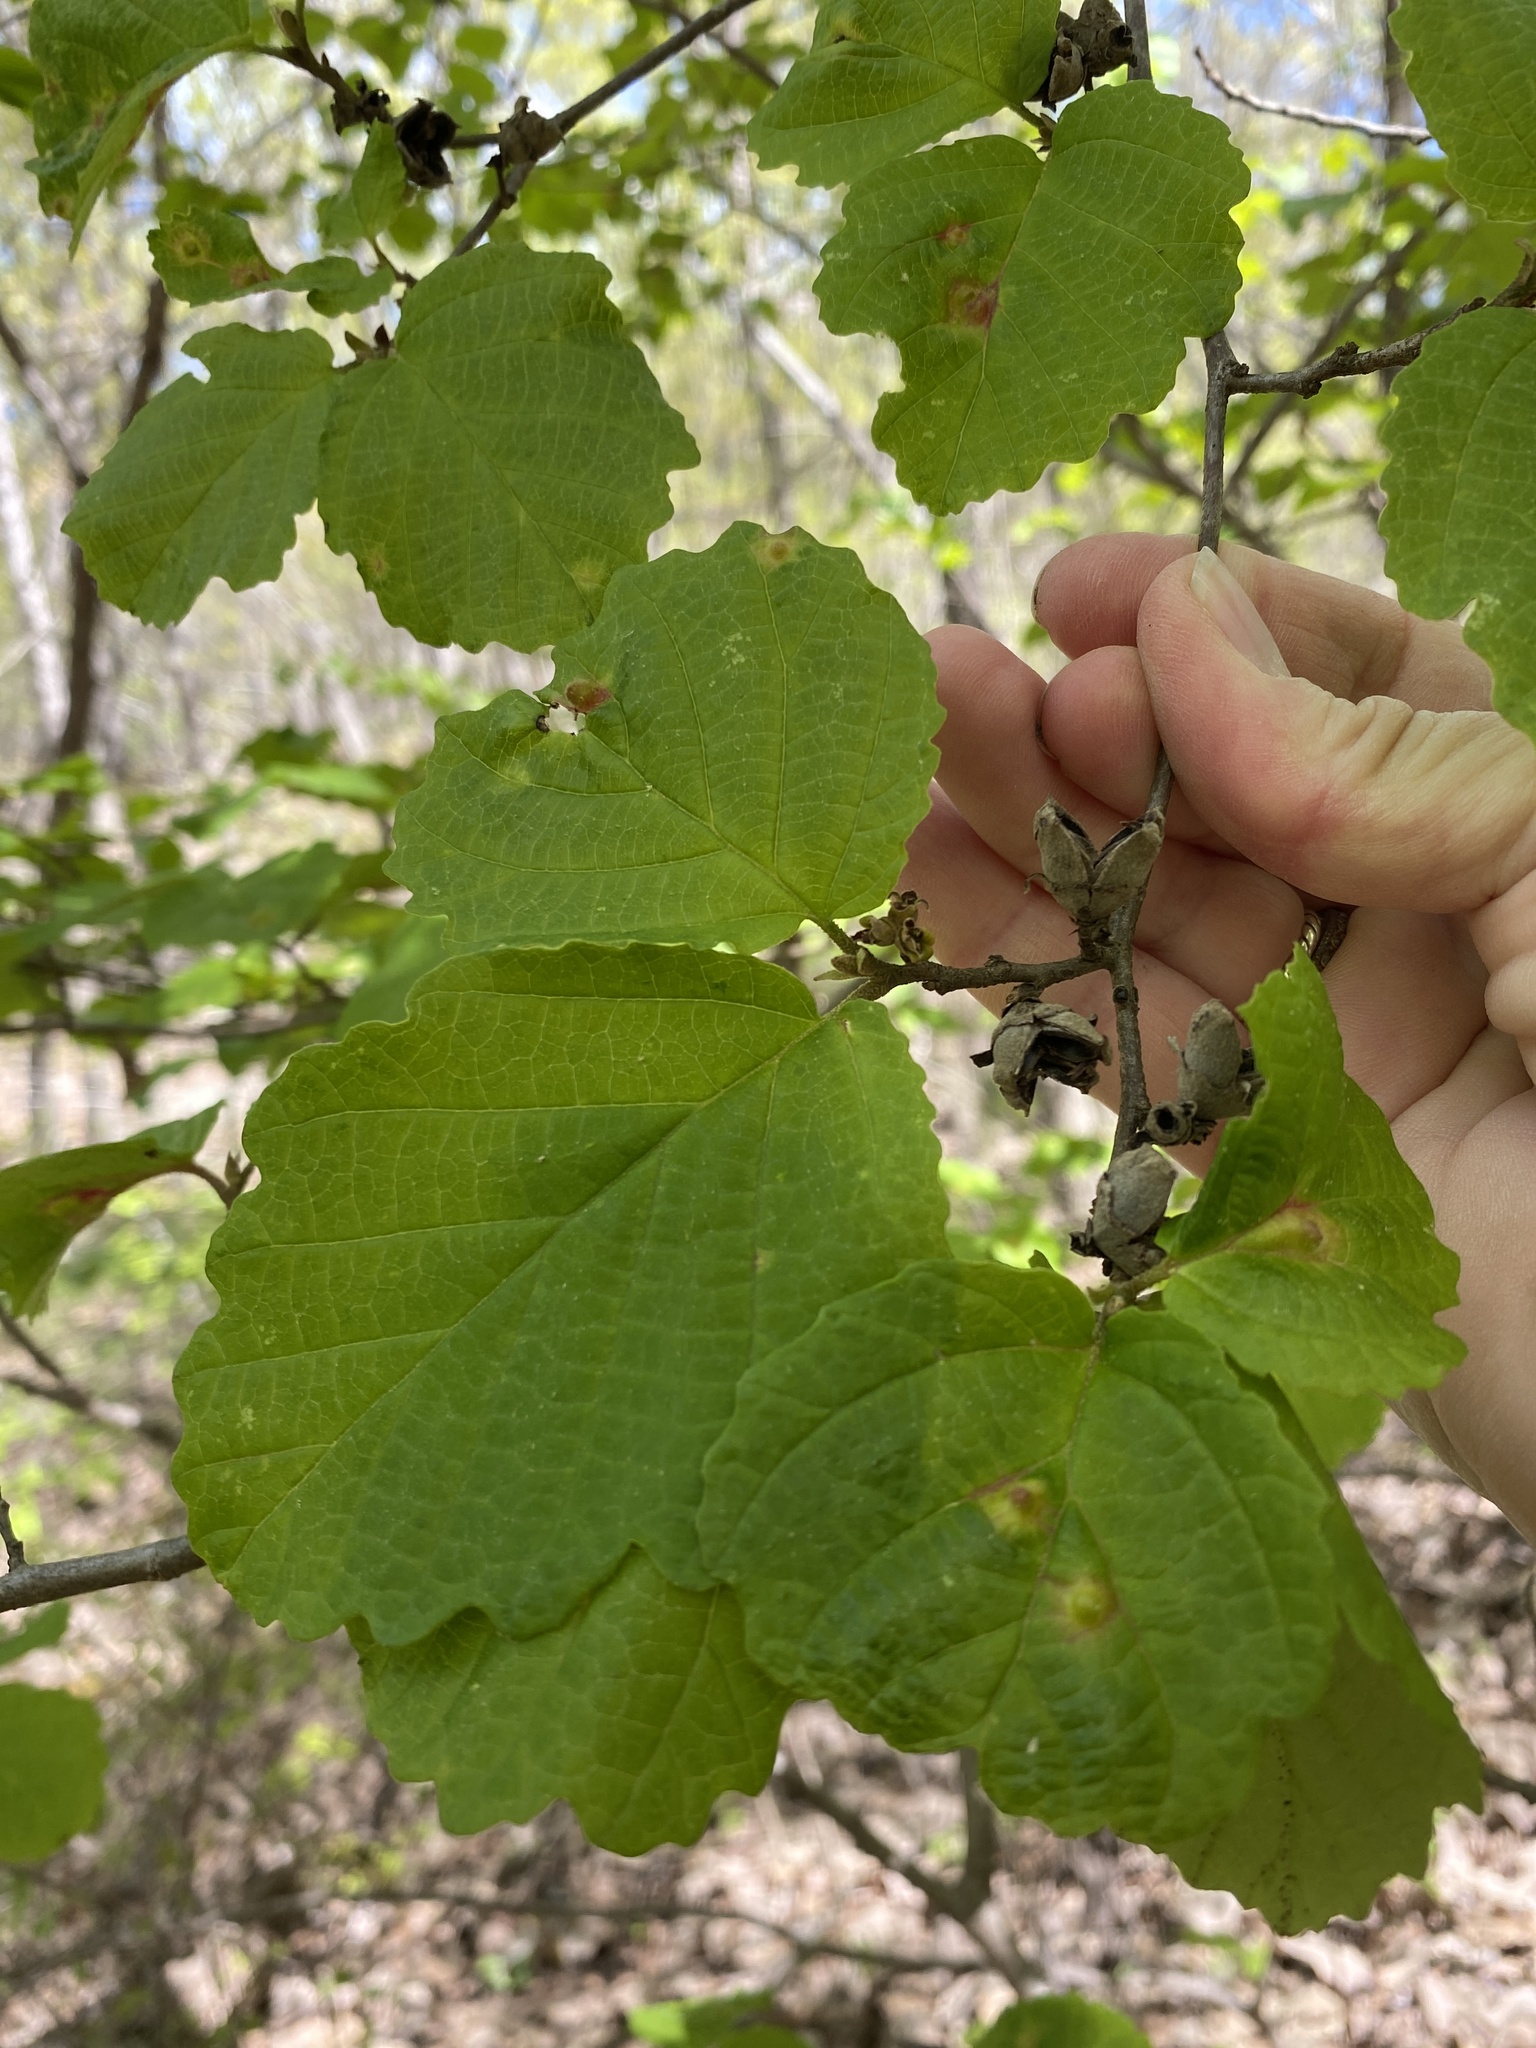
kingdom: Plantae
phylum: Tracheophyta
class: Magnoliopsida
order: Saxifragales
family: Hamamelidaceae
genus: Hamamelis
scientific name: Hamamelis virginiana
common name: Witch-hazel
